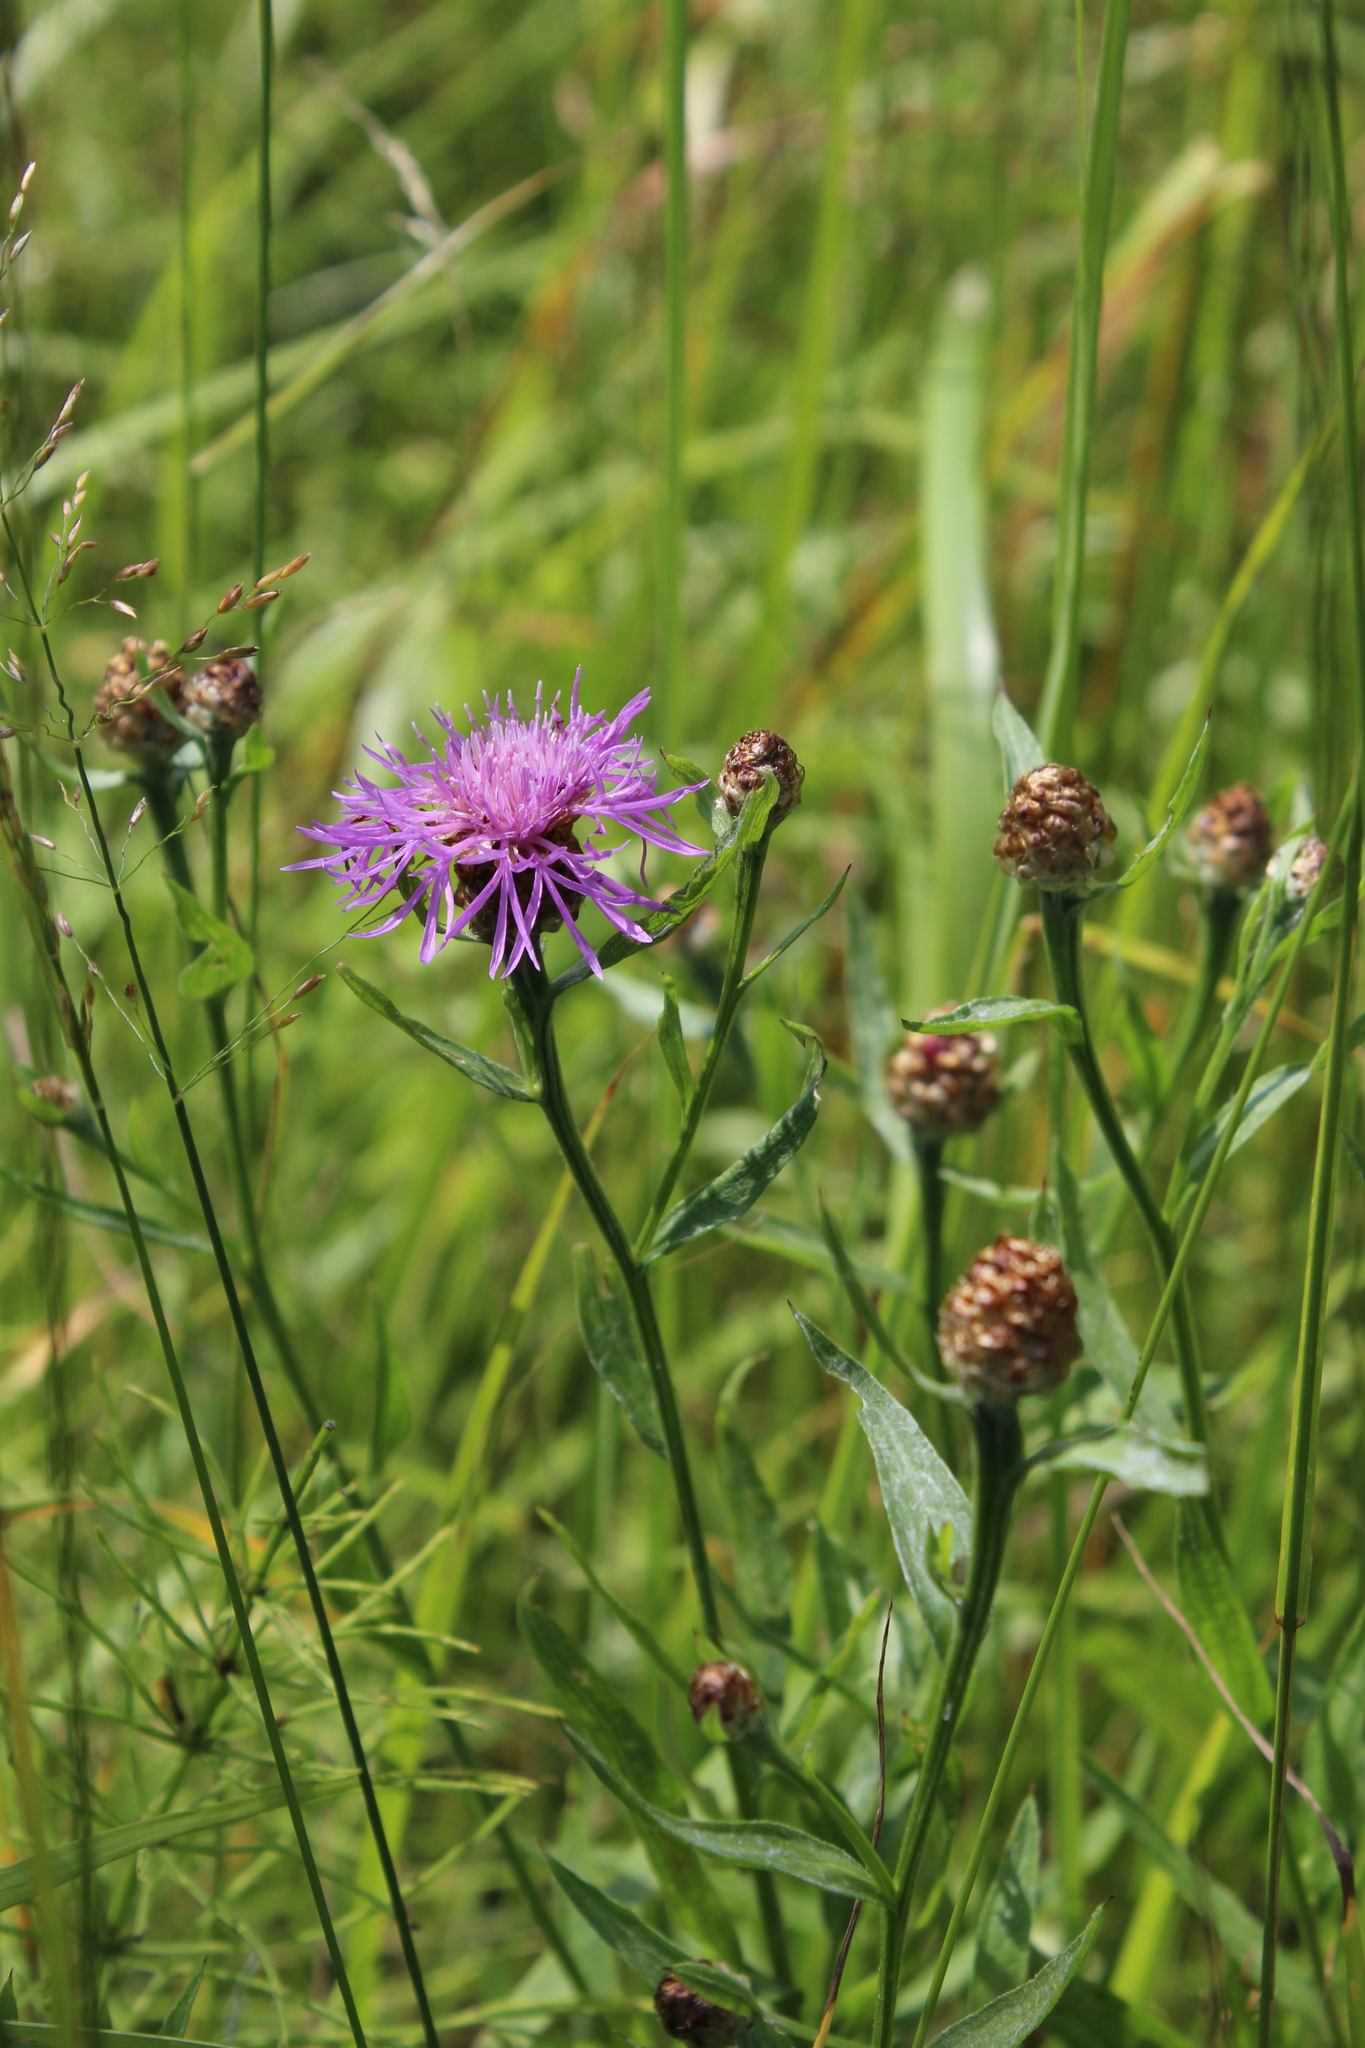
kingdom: Plantae
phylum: Tracheophyta
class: Magnoliopsida
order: Asterales
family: Asteraceae
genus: Centaurea
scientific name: Centaurea jacea
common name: Brown knapweed
